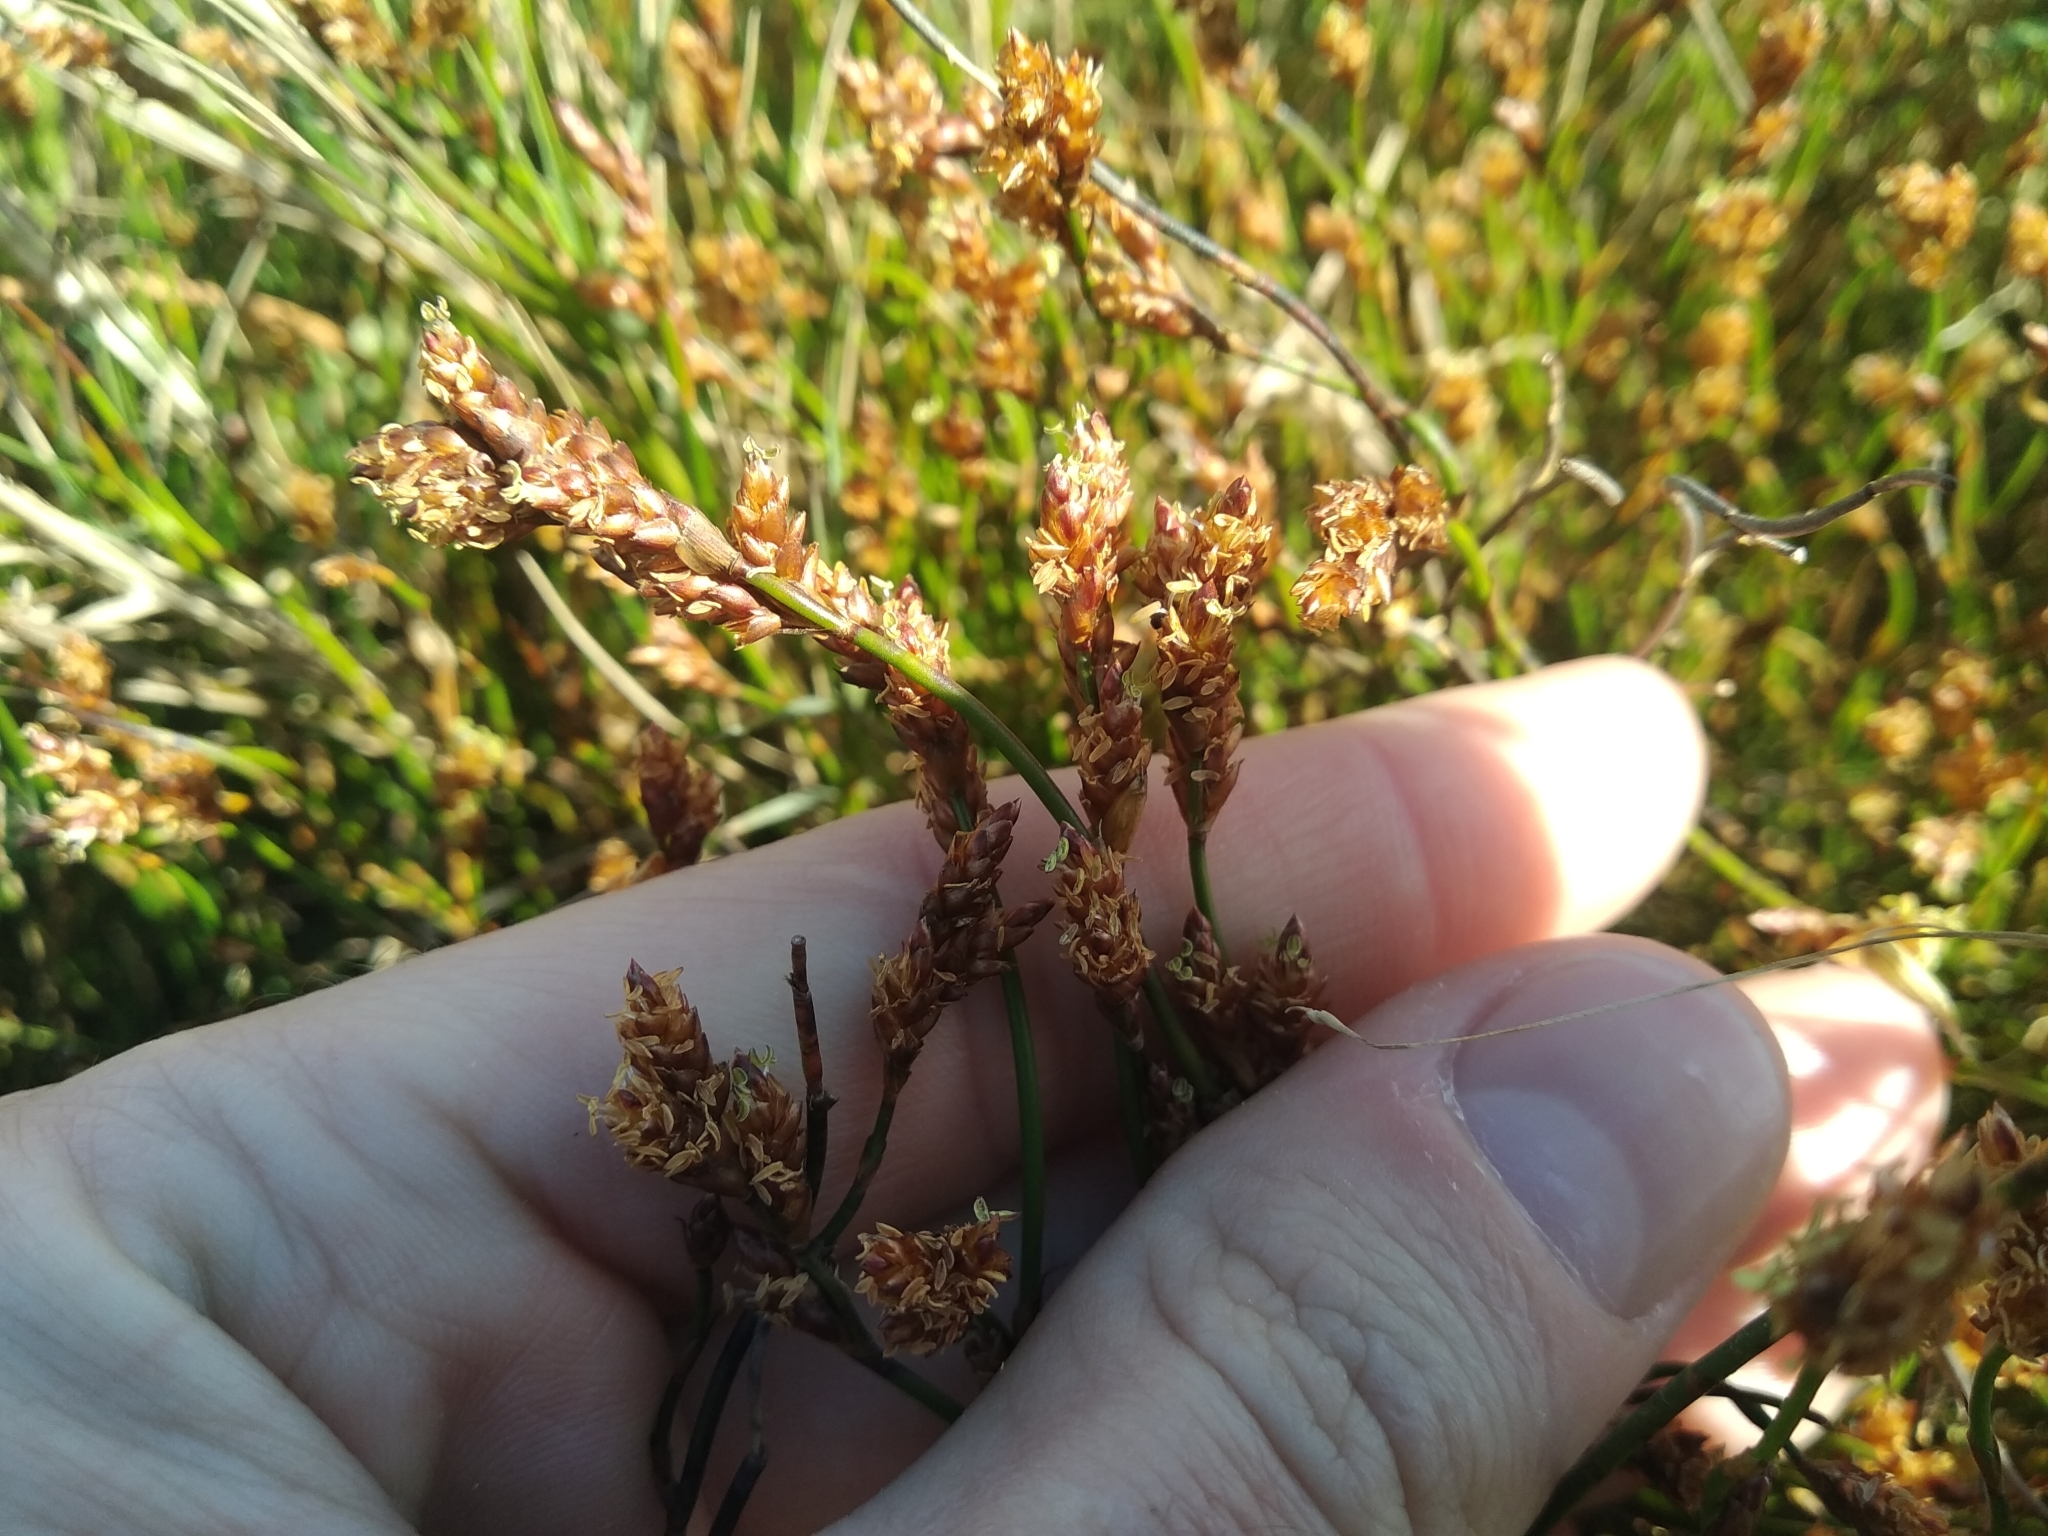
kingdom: Plantae
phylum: Tracheophyta
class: Liliopsida
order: Poales
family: Restionaceae
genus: Restio
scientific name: Restio vimineus
